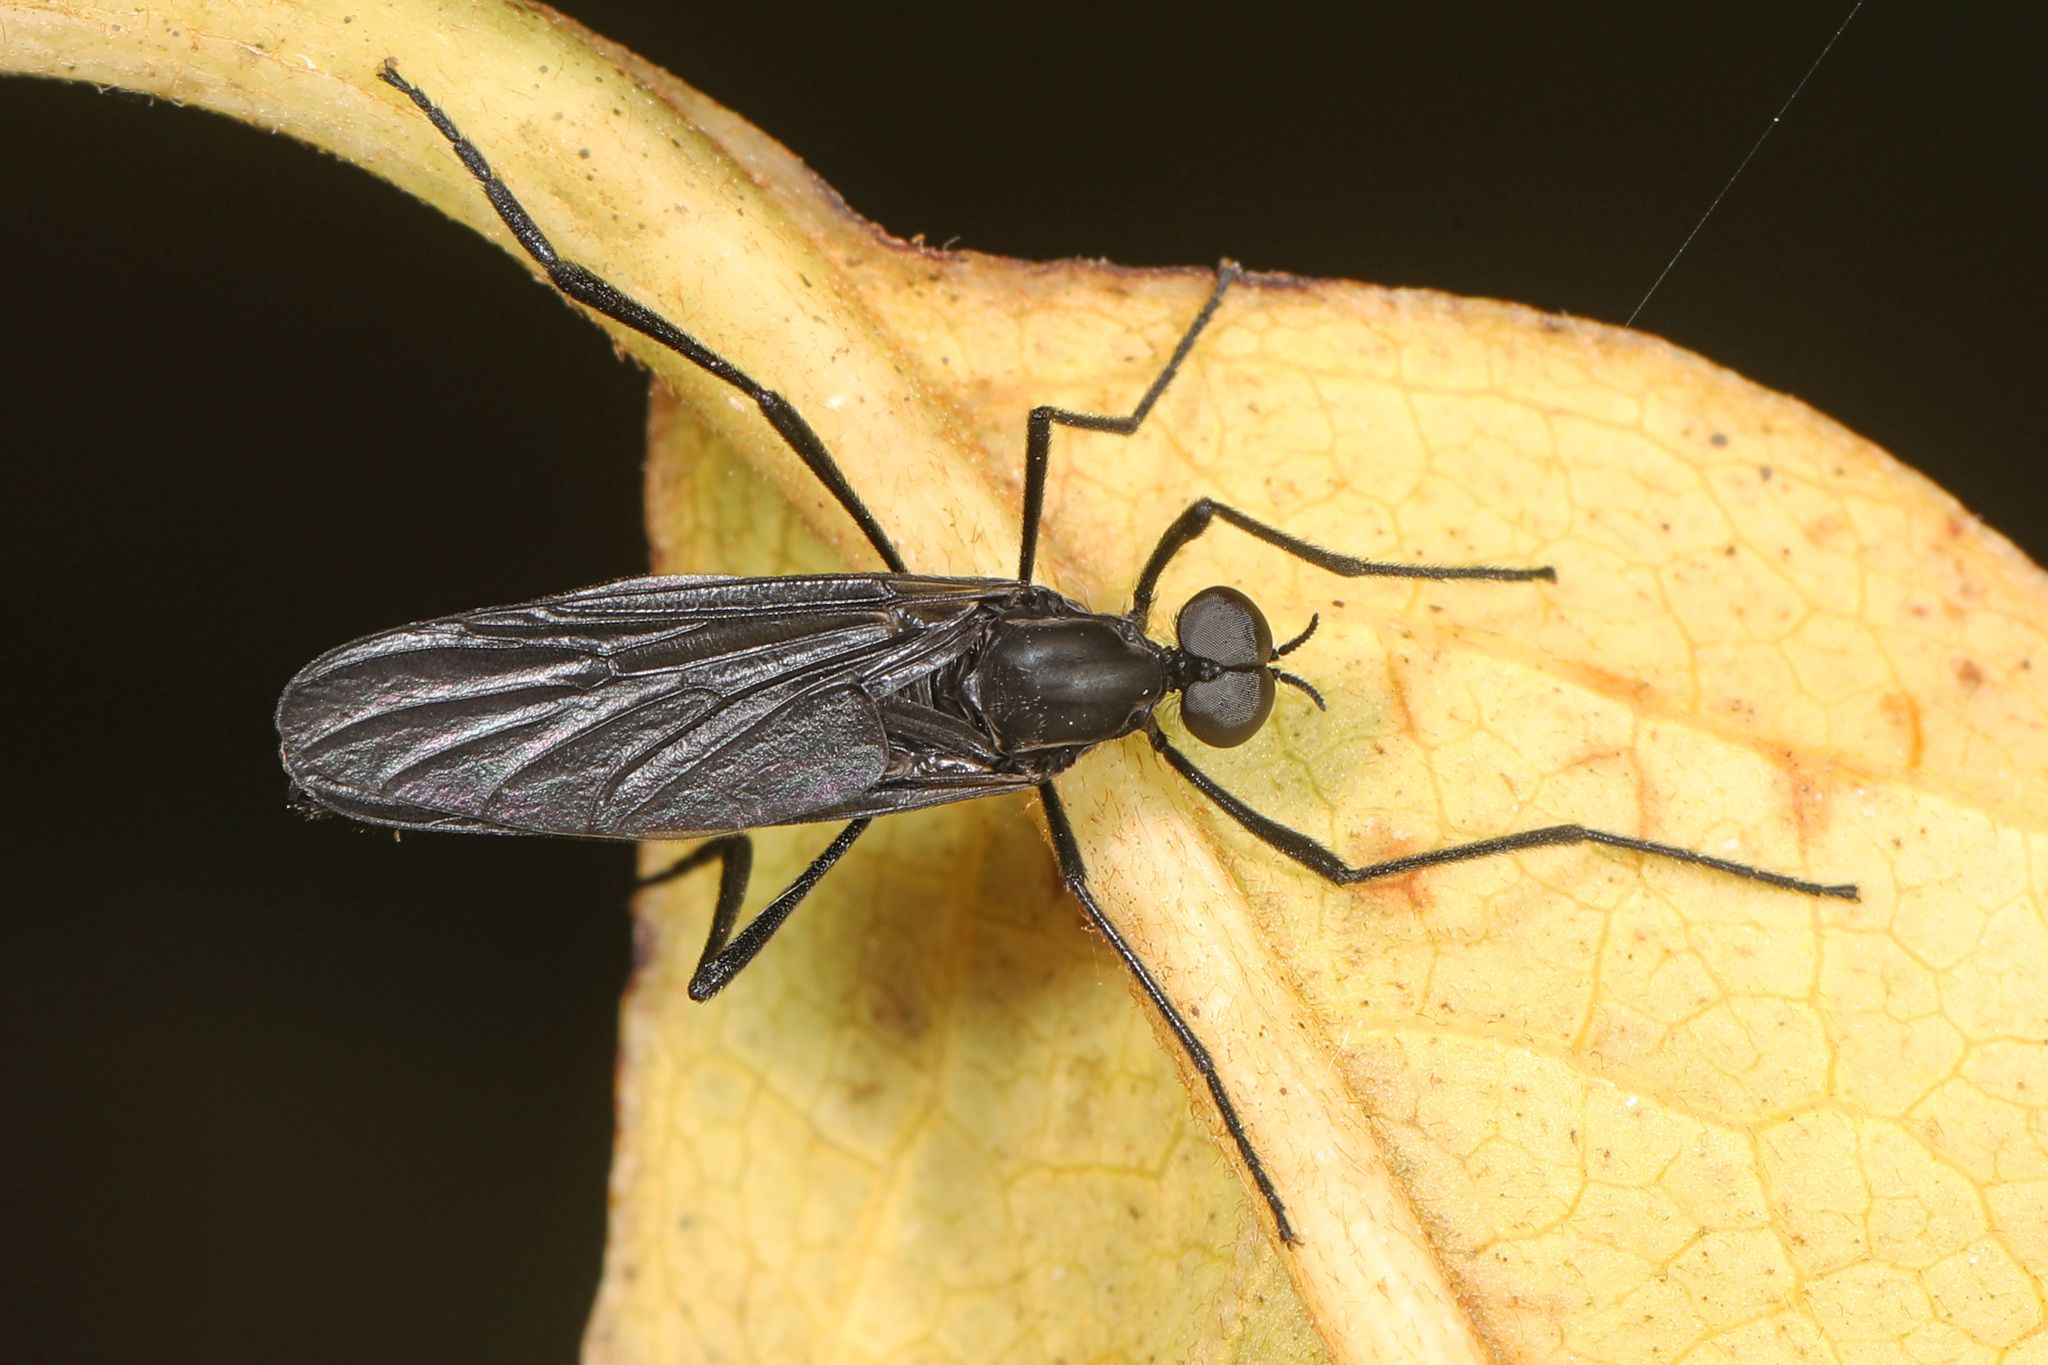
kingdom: Animalia
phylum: Arthropoda
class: Insecta
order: Diptera
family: Bibionidae
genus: Penthetria
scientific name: Penthetria heteroptera
